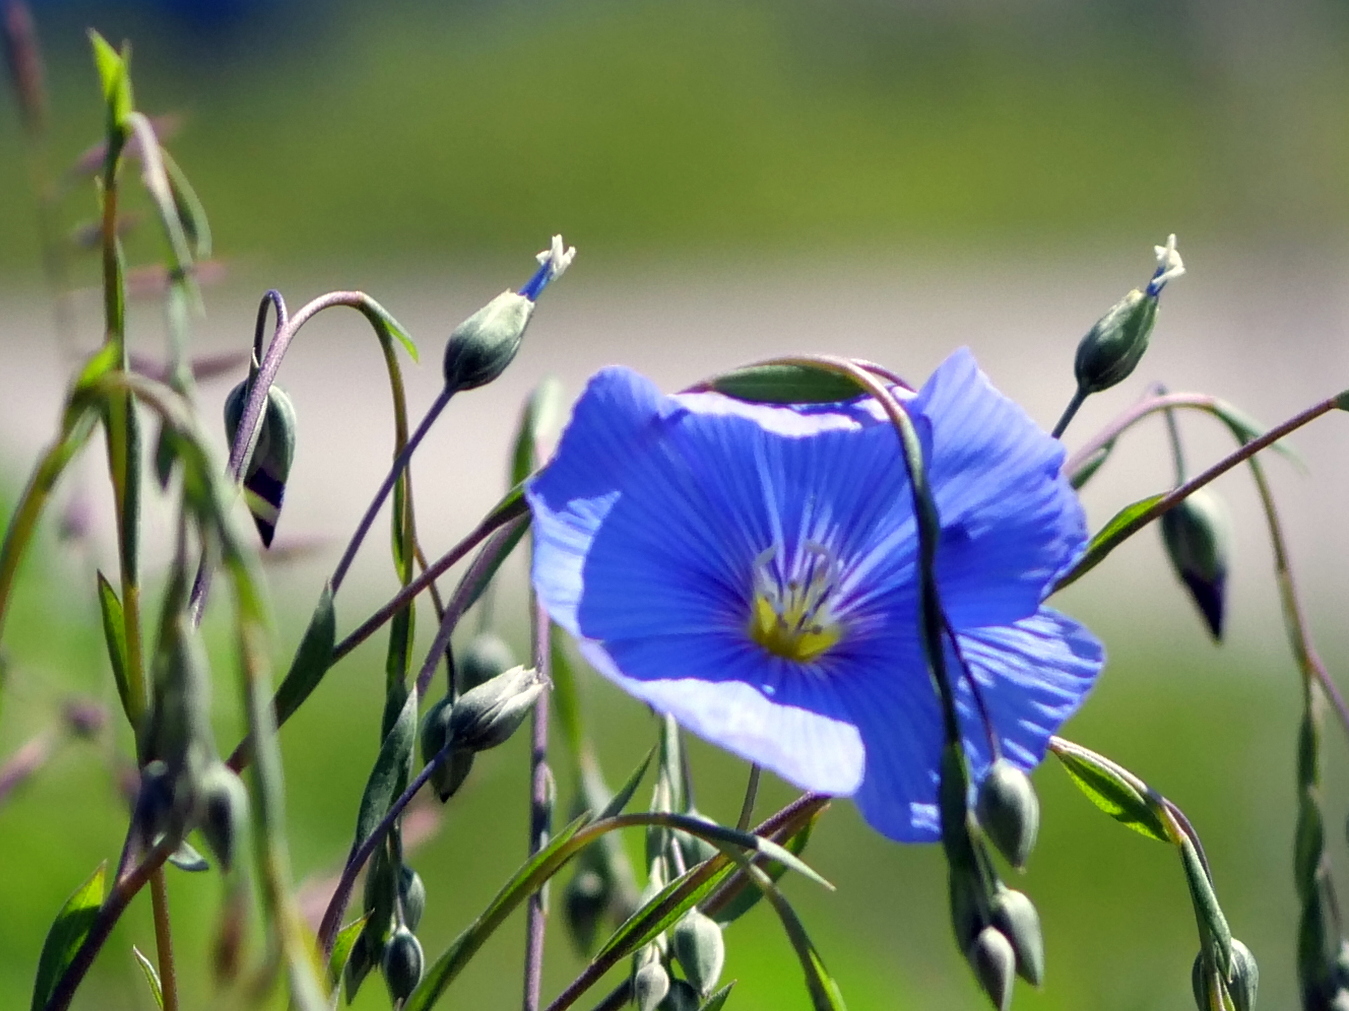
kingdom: Plantae
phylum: Tracheophyta
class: Magnoliopsida
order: Malpighiales
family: Linaceae
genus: Linum
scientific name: Linum austriacum
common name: Austrian flax
